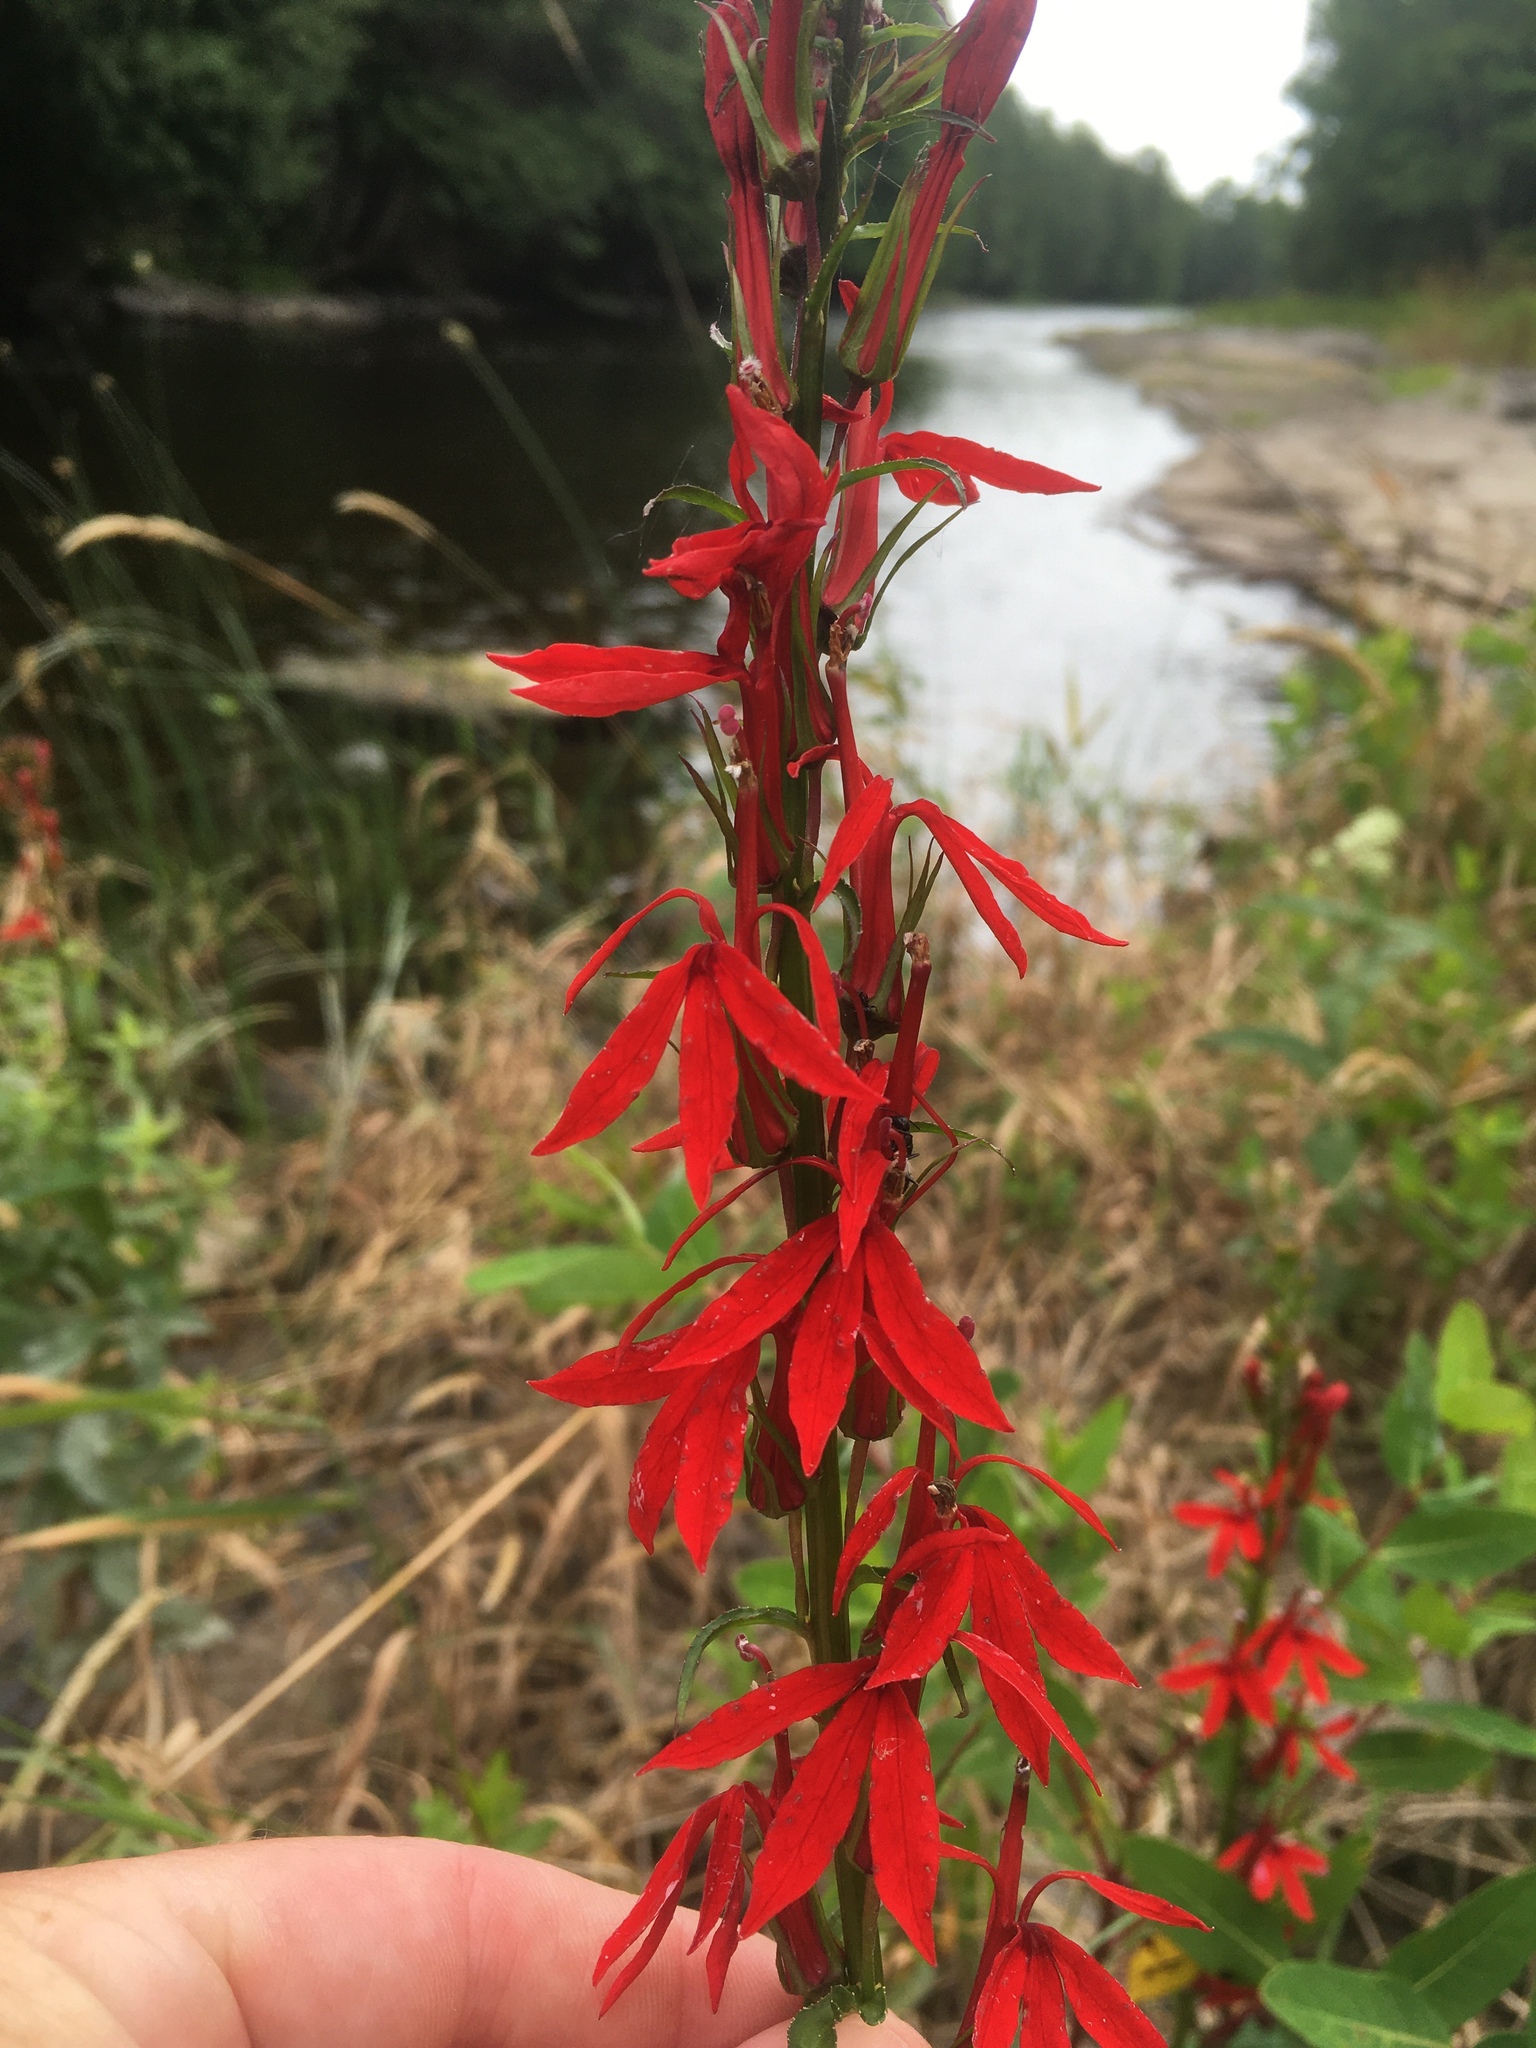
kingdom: Plantae
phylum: Tracheophyta
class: Magnoliopsida
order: Asterales
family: Campanulaceae
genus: Lobelia
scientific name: Lobelia cardinalis
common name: Cardinal flower
